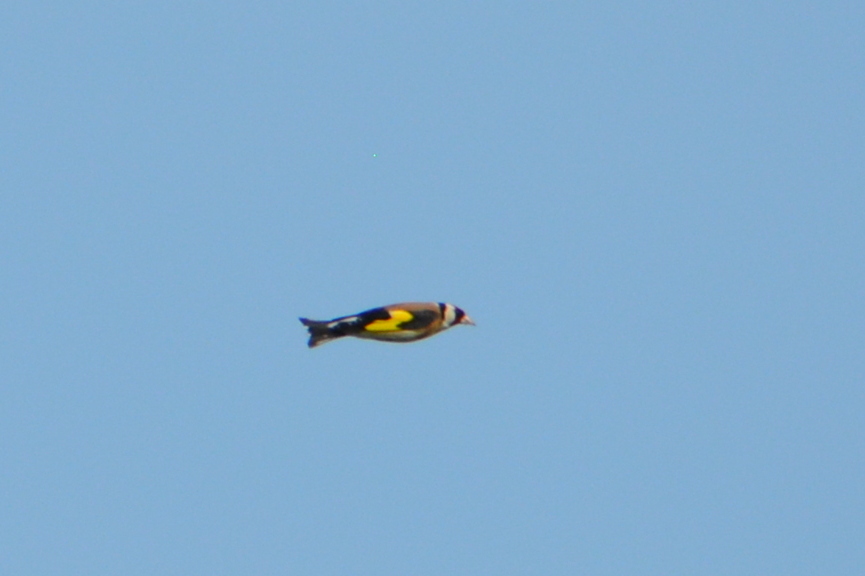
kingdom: Animalia
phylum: Chordata
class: Aves
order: Passeriformes
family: Fringillidae
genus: Carduelis
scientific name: Carduelis carduelis
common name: European goldfinch
